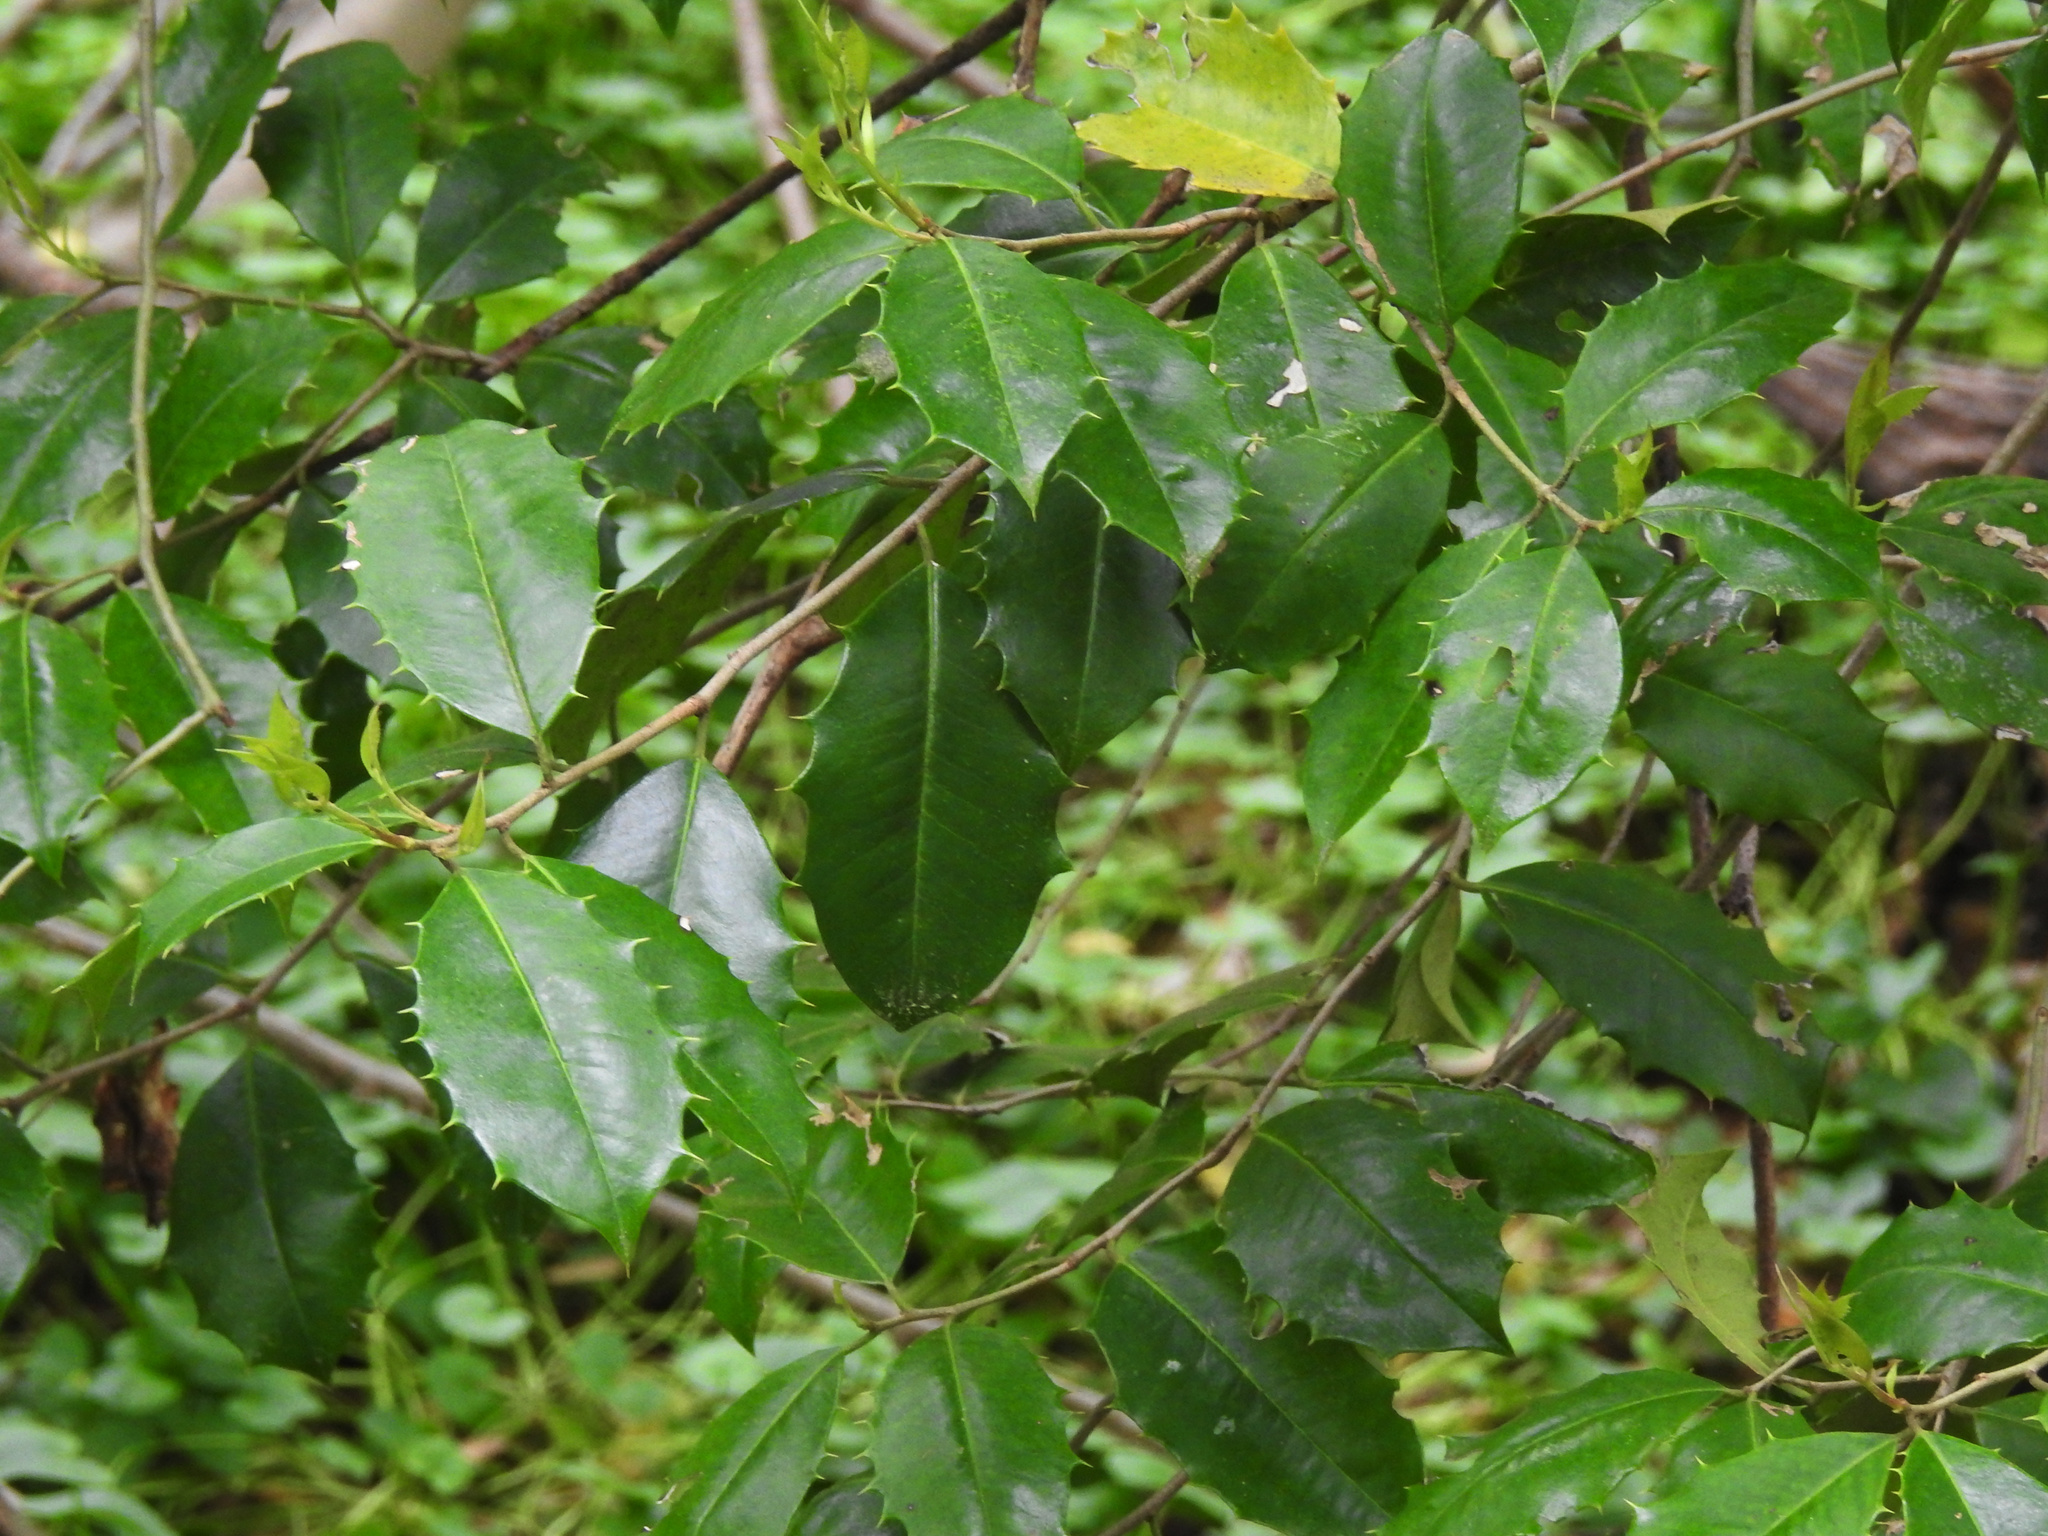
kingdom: Plantae
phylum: Tracheophyta
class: Magnoliopsida
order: Aquifoliales
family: Aquifoliaceae
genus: Ilex
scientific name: Ilex opaca
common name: American holly
